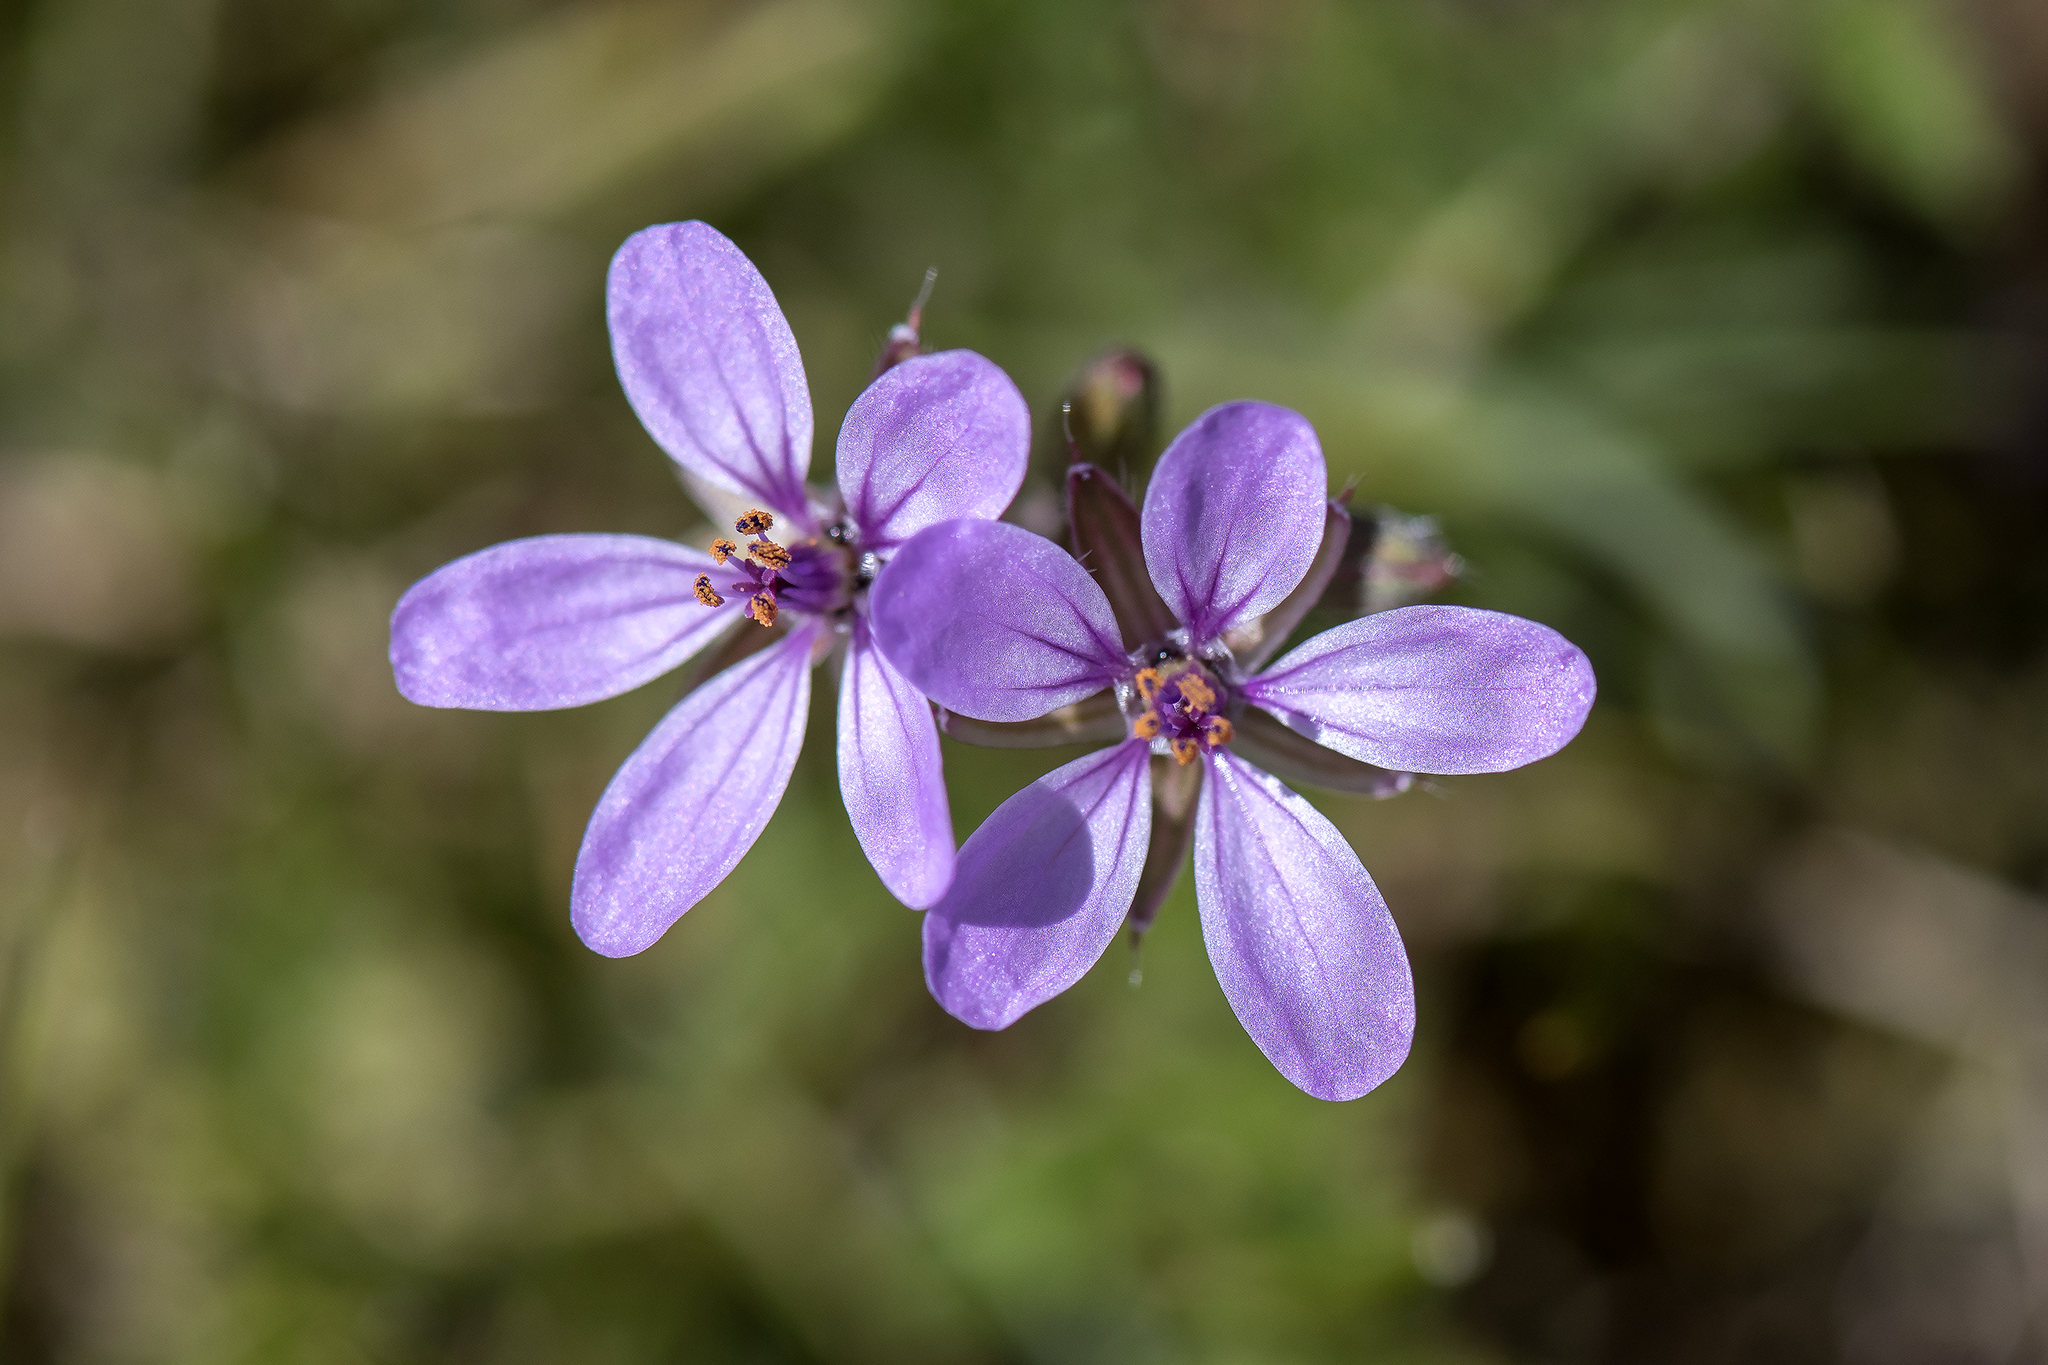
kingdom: Plantae
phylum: Tracheophyta
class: Magnoliopsida
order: Geraniales
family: Geraniaceae
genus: Erodium
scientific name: Erodium cicutarium
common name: Common stork's-bill
